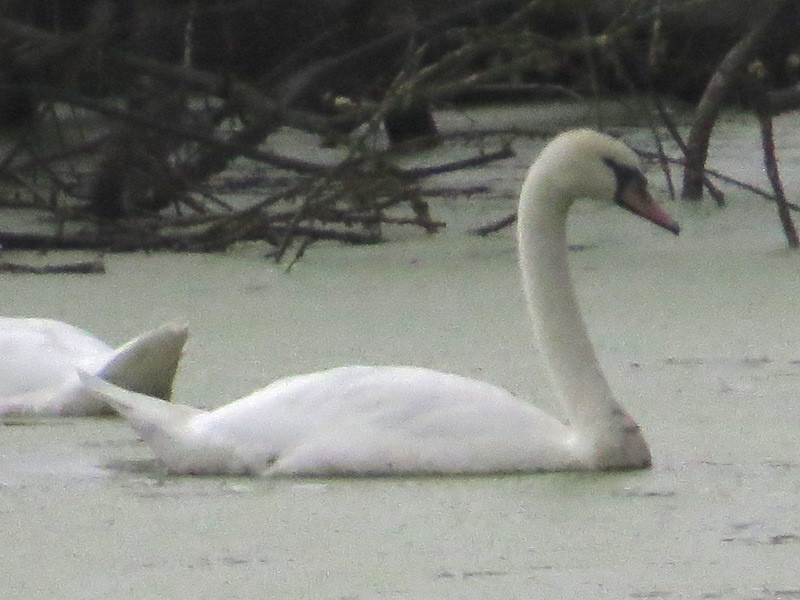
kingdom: Animalia
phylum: Chordata
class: Aves
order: Anseriformes
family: Anatidae
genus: Cygnus
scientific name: Cygnus olor
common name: Mute swan
